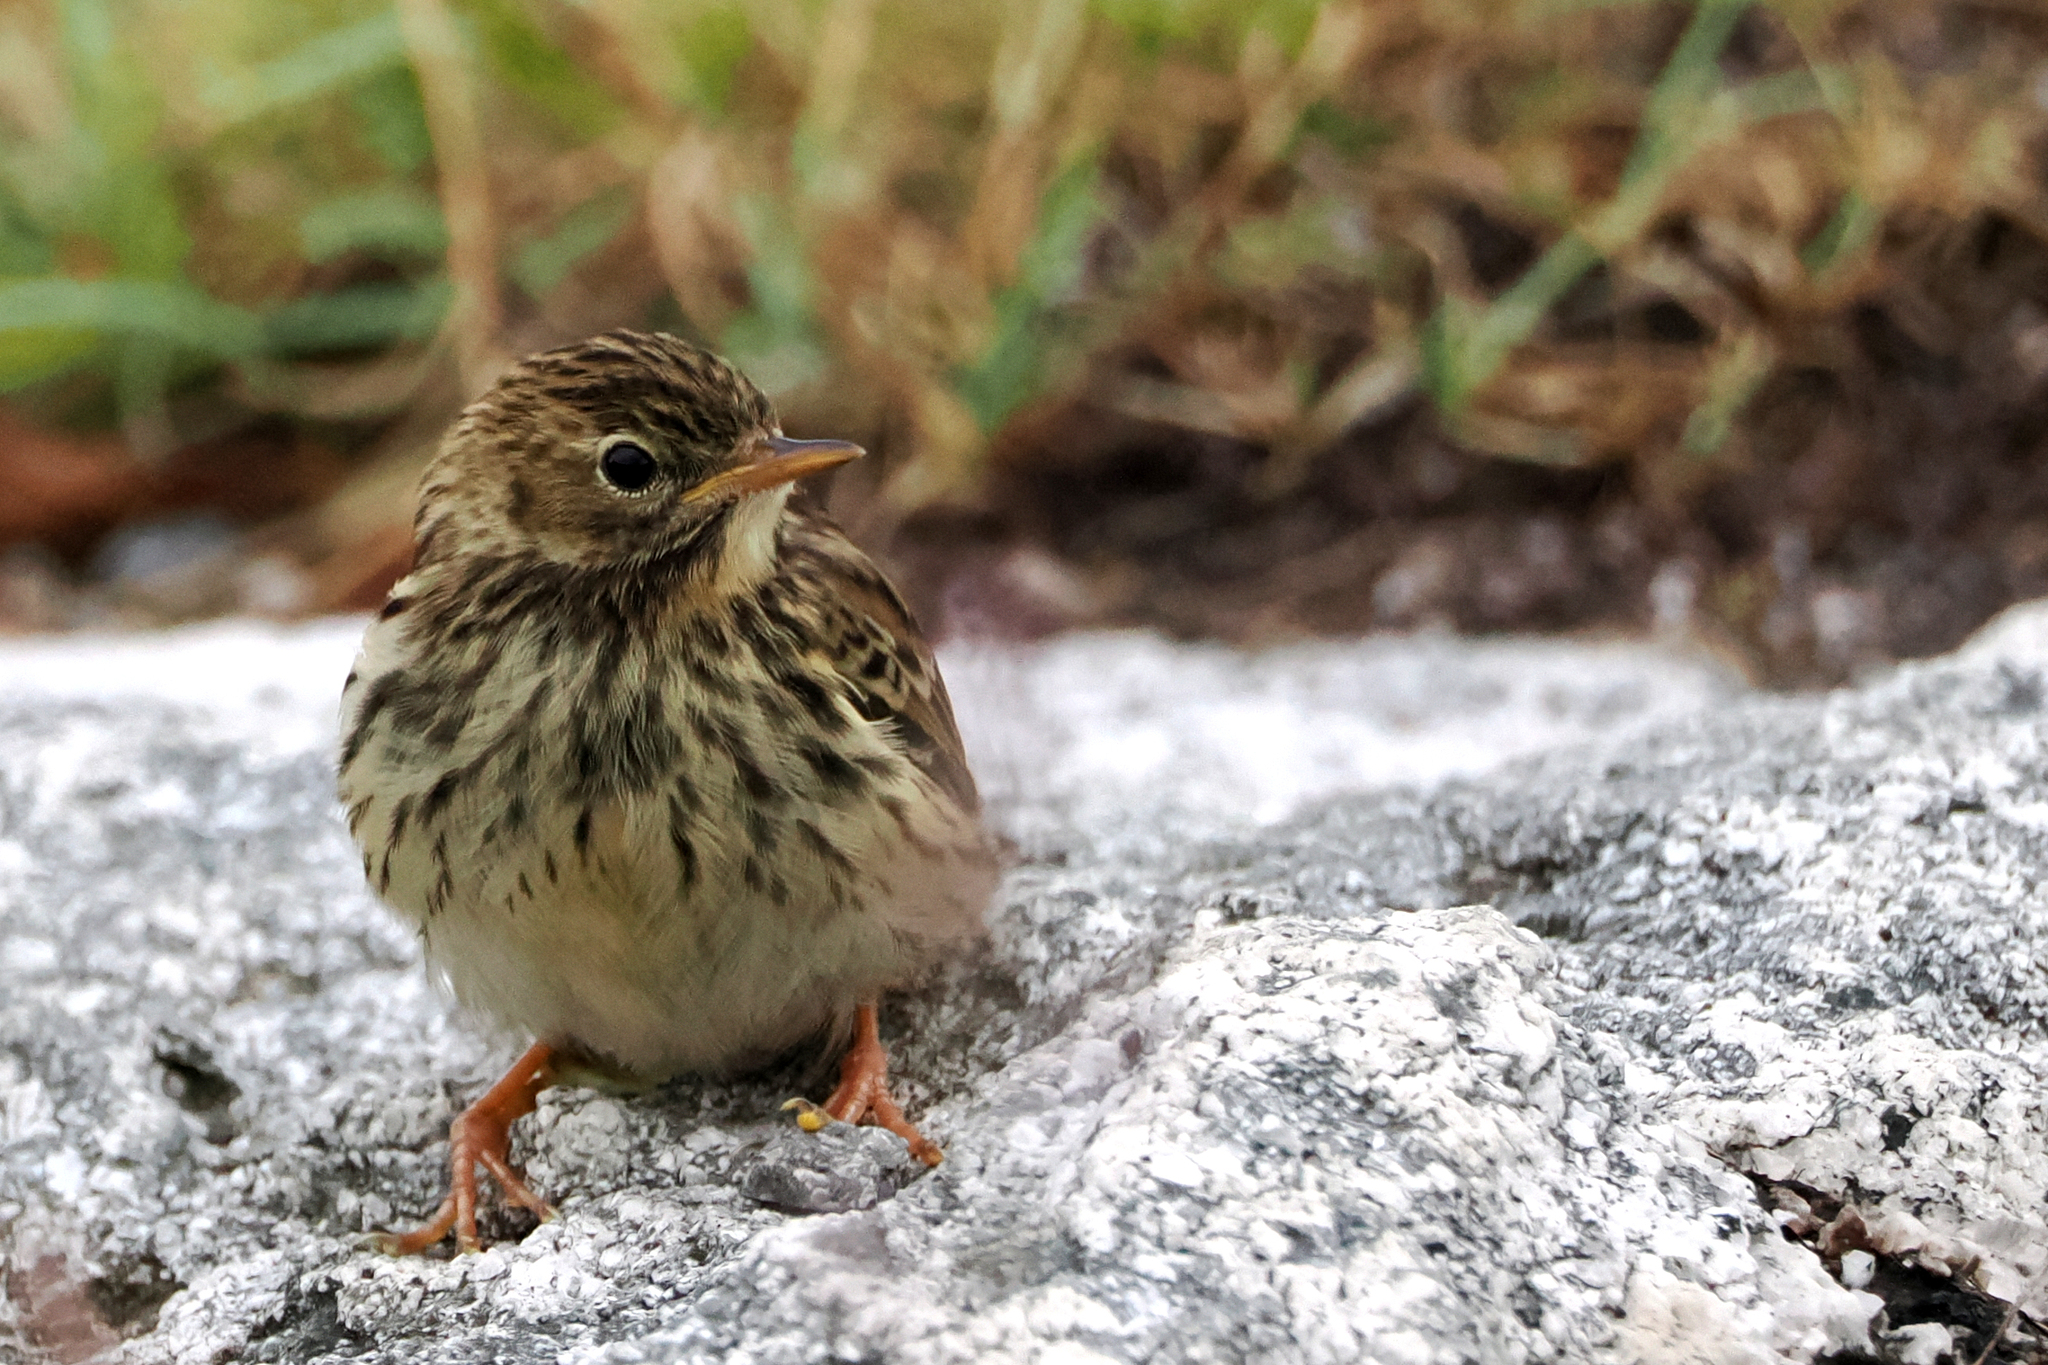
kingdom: Animalia
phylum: Chordata
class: Aves
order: Passeriformes
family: Motacillidae
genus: Anthus
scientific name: Anthus pratensis
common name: Meadow pipit
